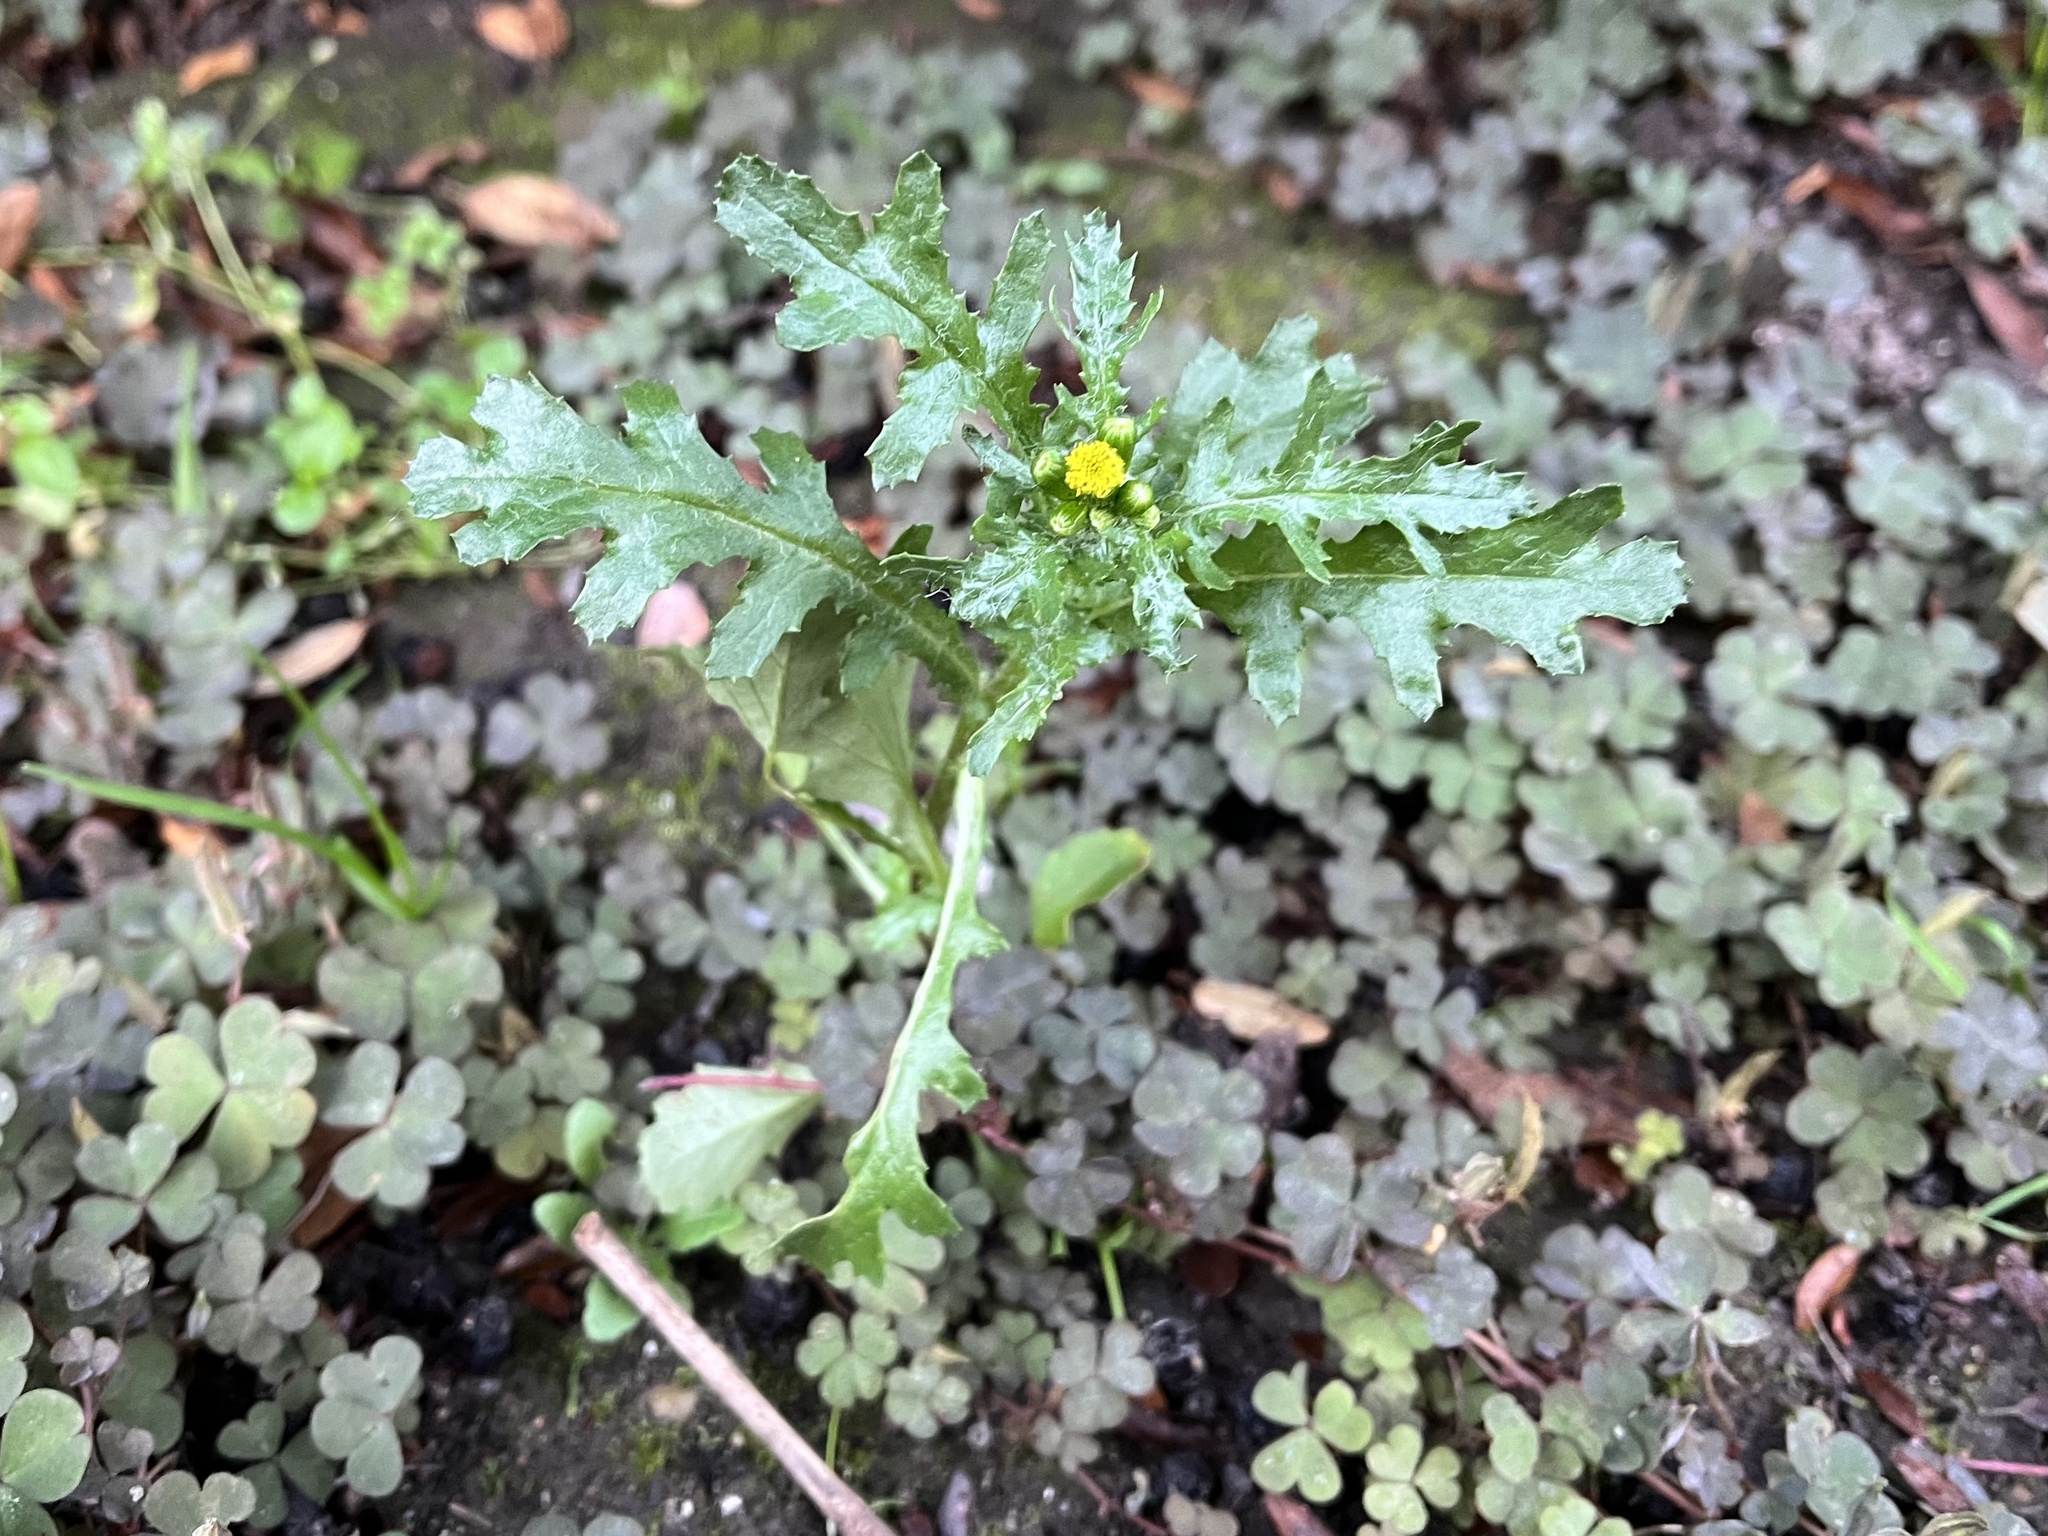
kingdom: Plantae
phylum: Tracheophyta
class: Magnoliopsida
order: Asterales
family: Asteraceae
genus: Senecio
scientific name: Senecio vulgaris
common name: Old-man-in-the-spring
